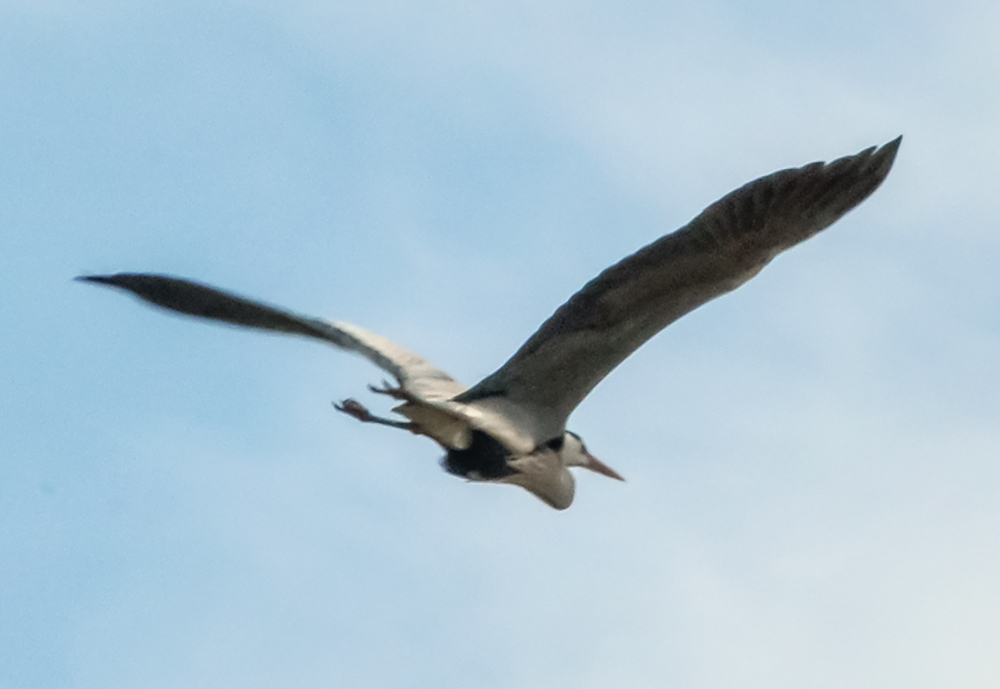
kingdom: Animalia
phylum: Chordata
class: Aves
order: Pelecaniformes
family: Ardeidae
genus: Ardea
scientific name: Ardea cinerea
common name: Grey heron
